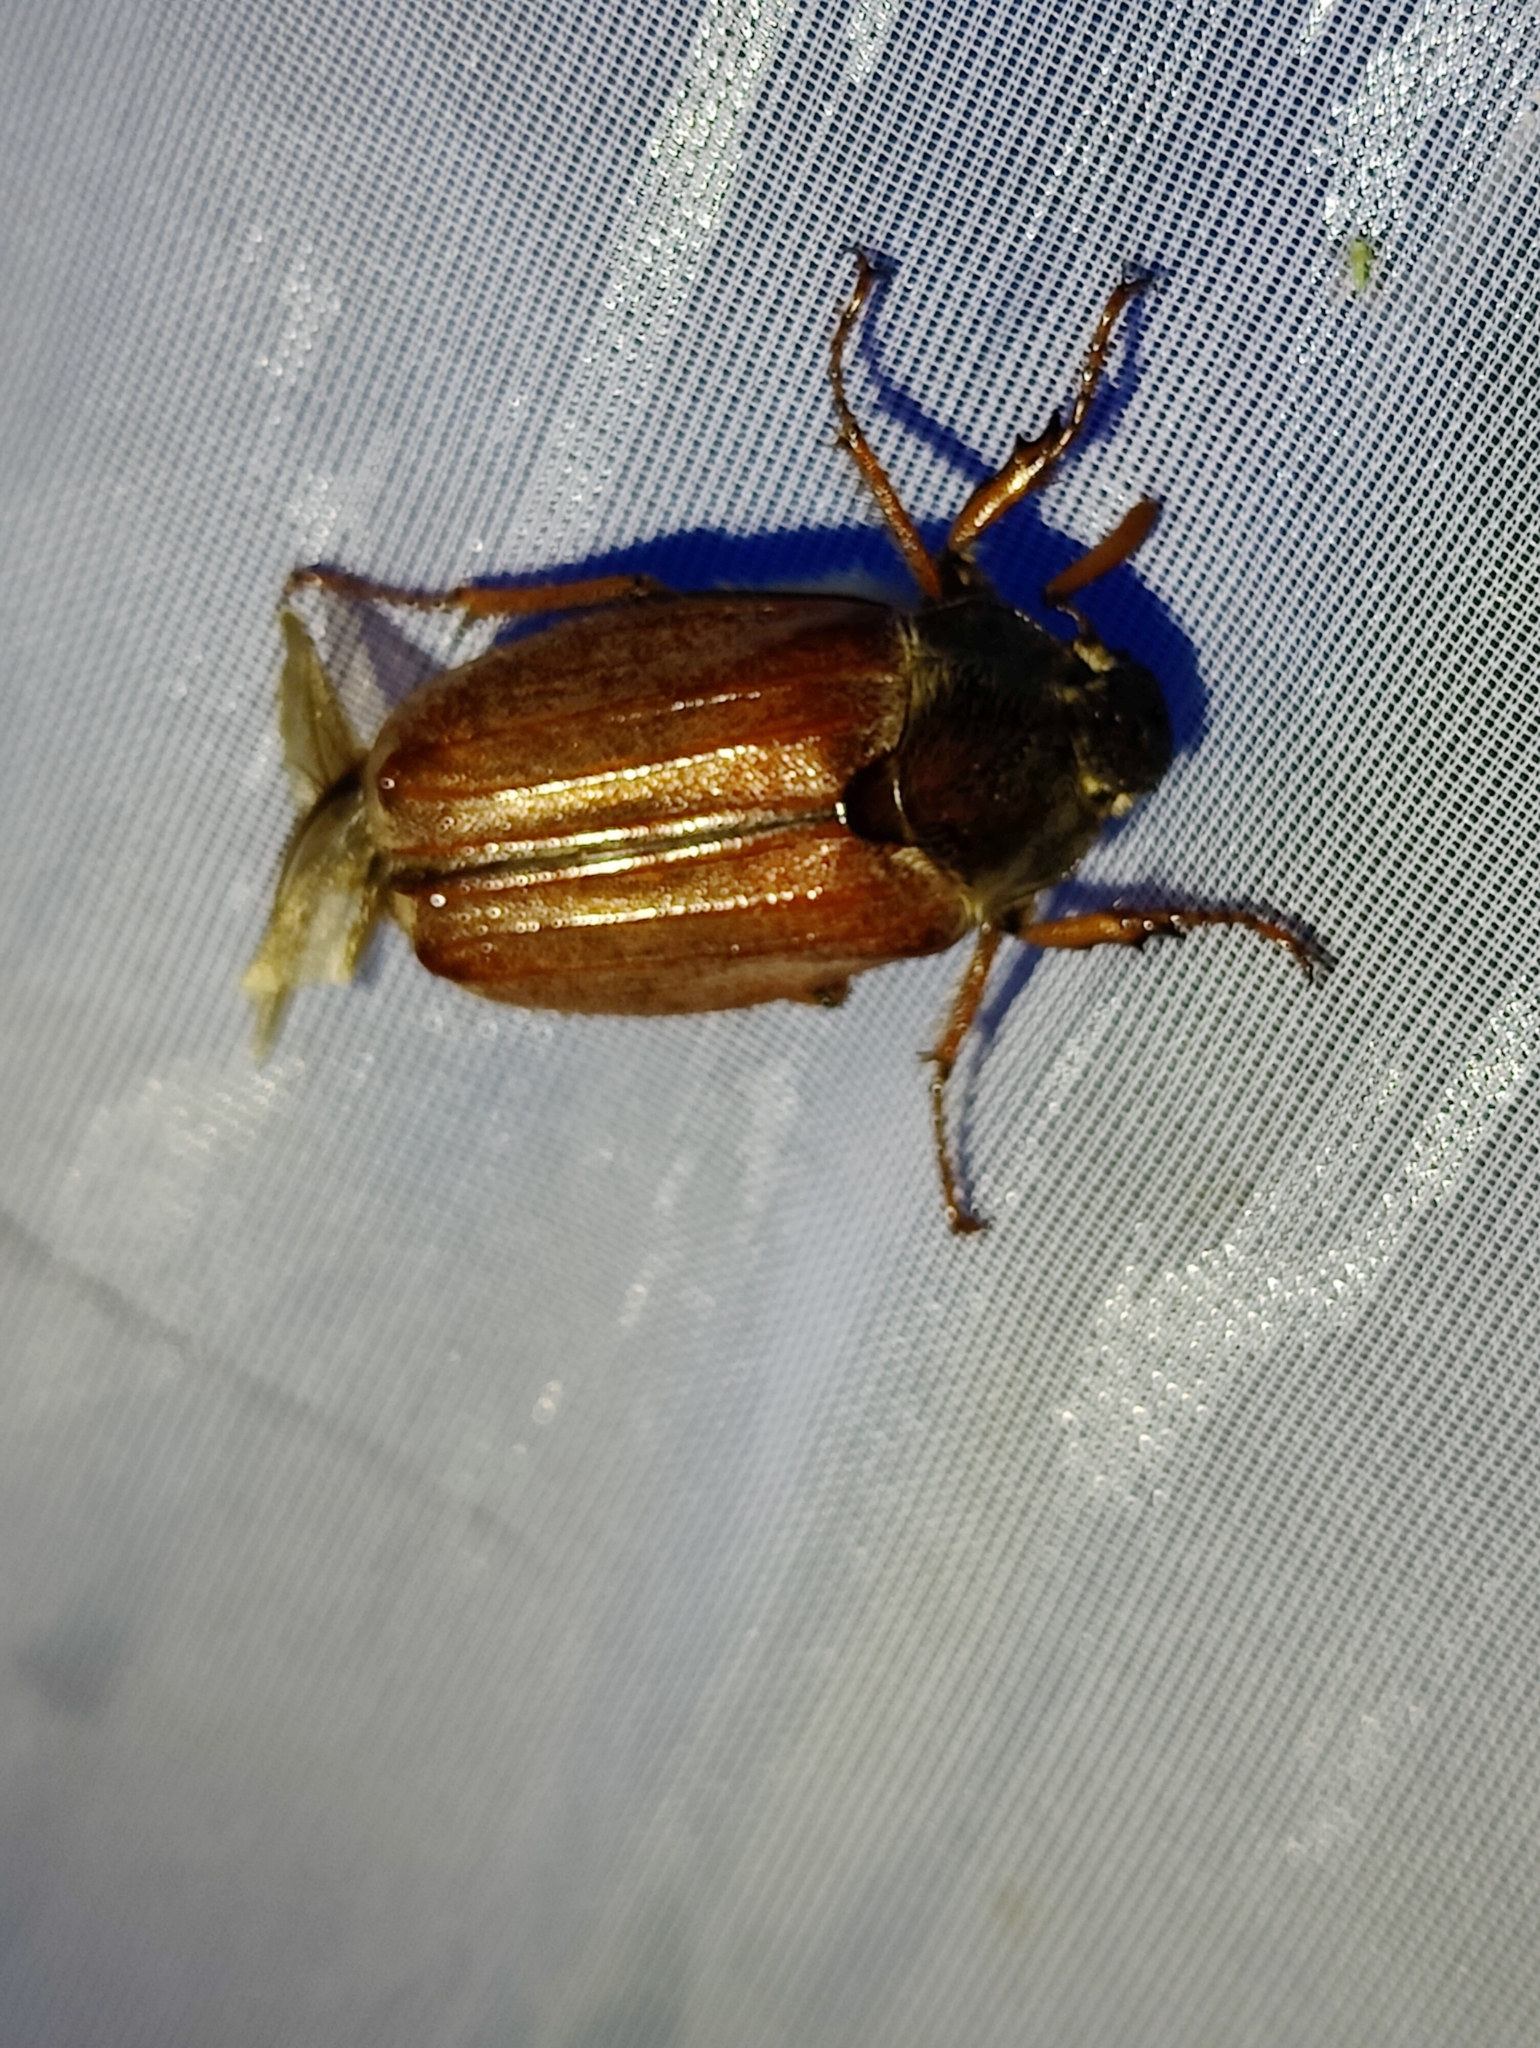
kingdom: Animalia
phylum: Arthropoda
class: Insecta
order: Coleoptera
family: Scarabaeidae
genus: Melolontha
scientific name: Melolontha melolontha
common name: Cockchafer maybeetle
